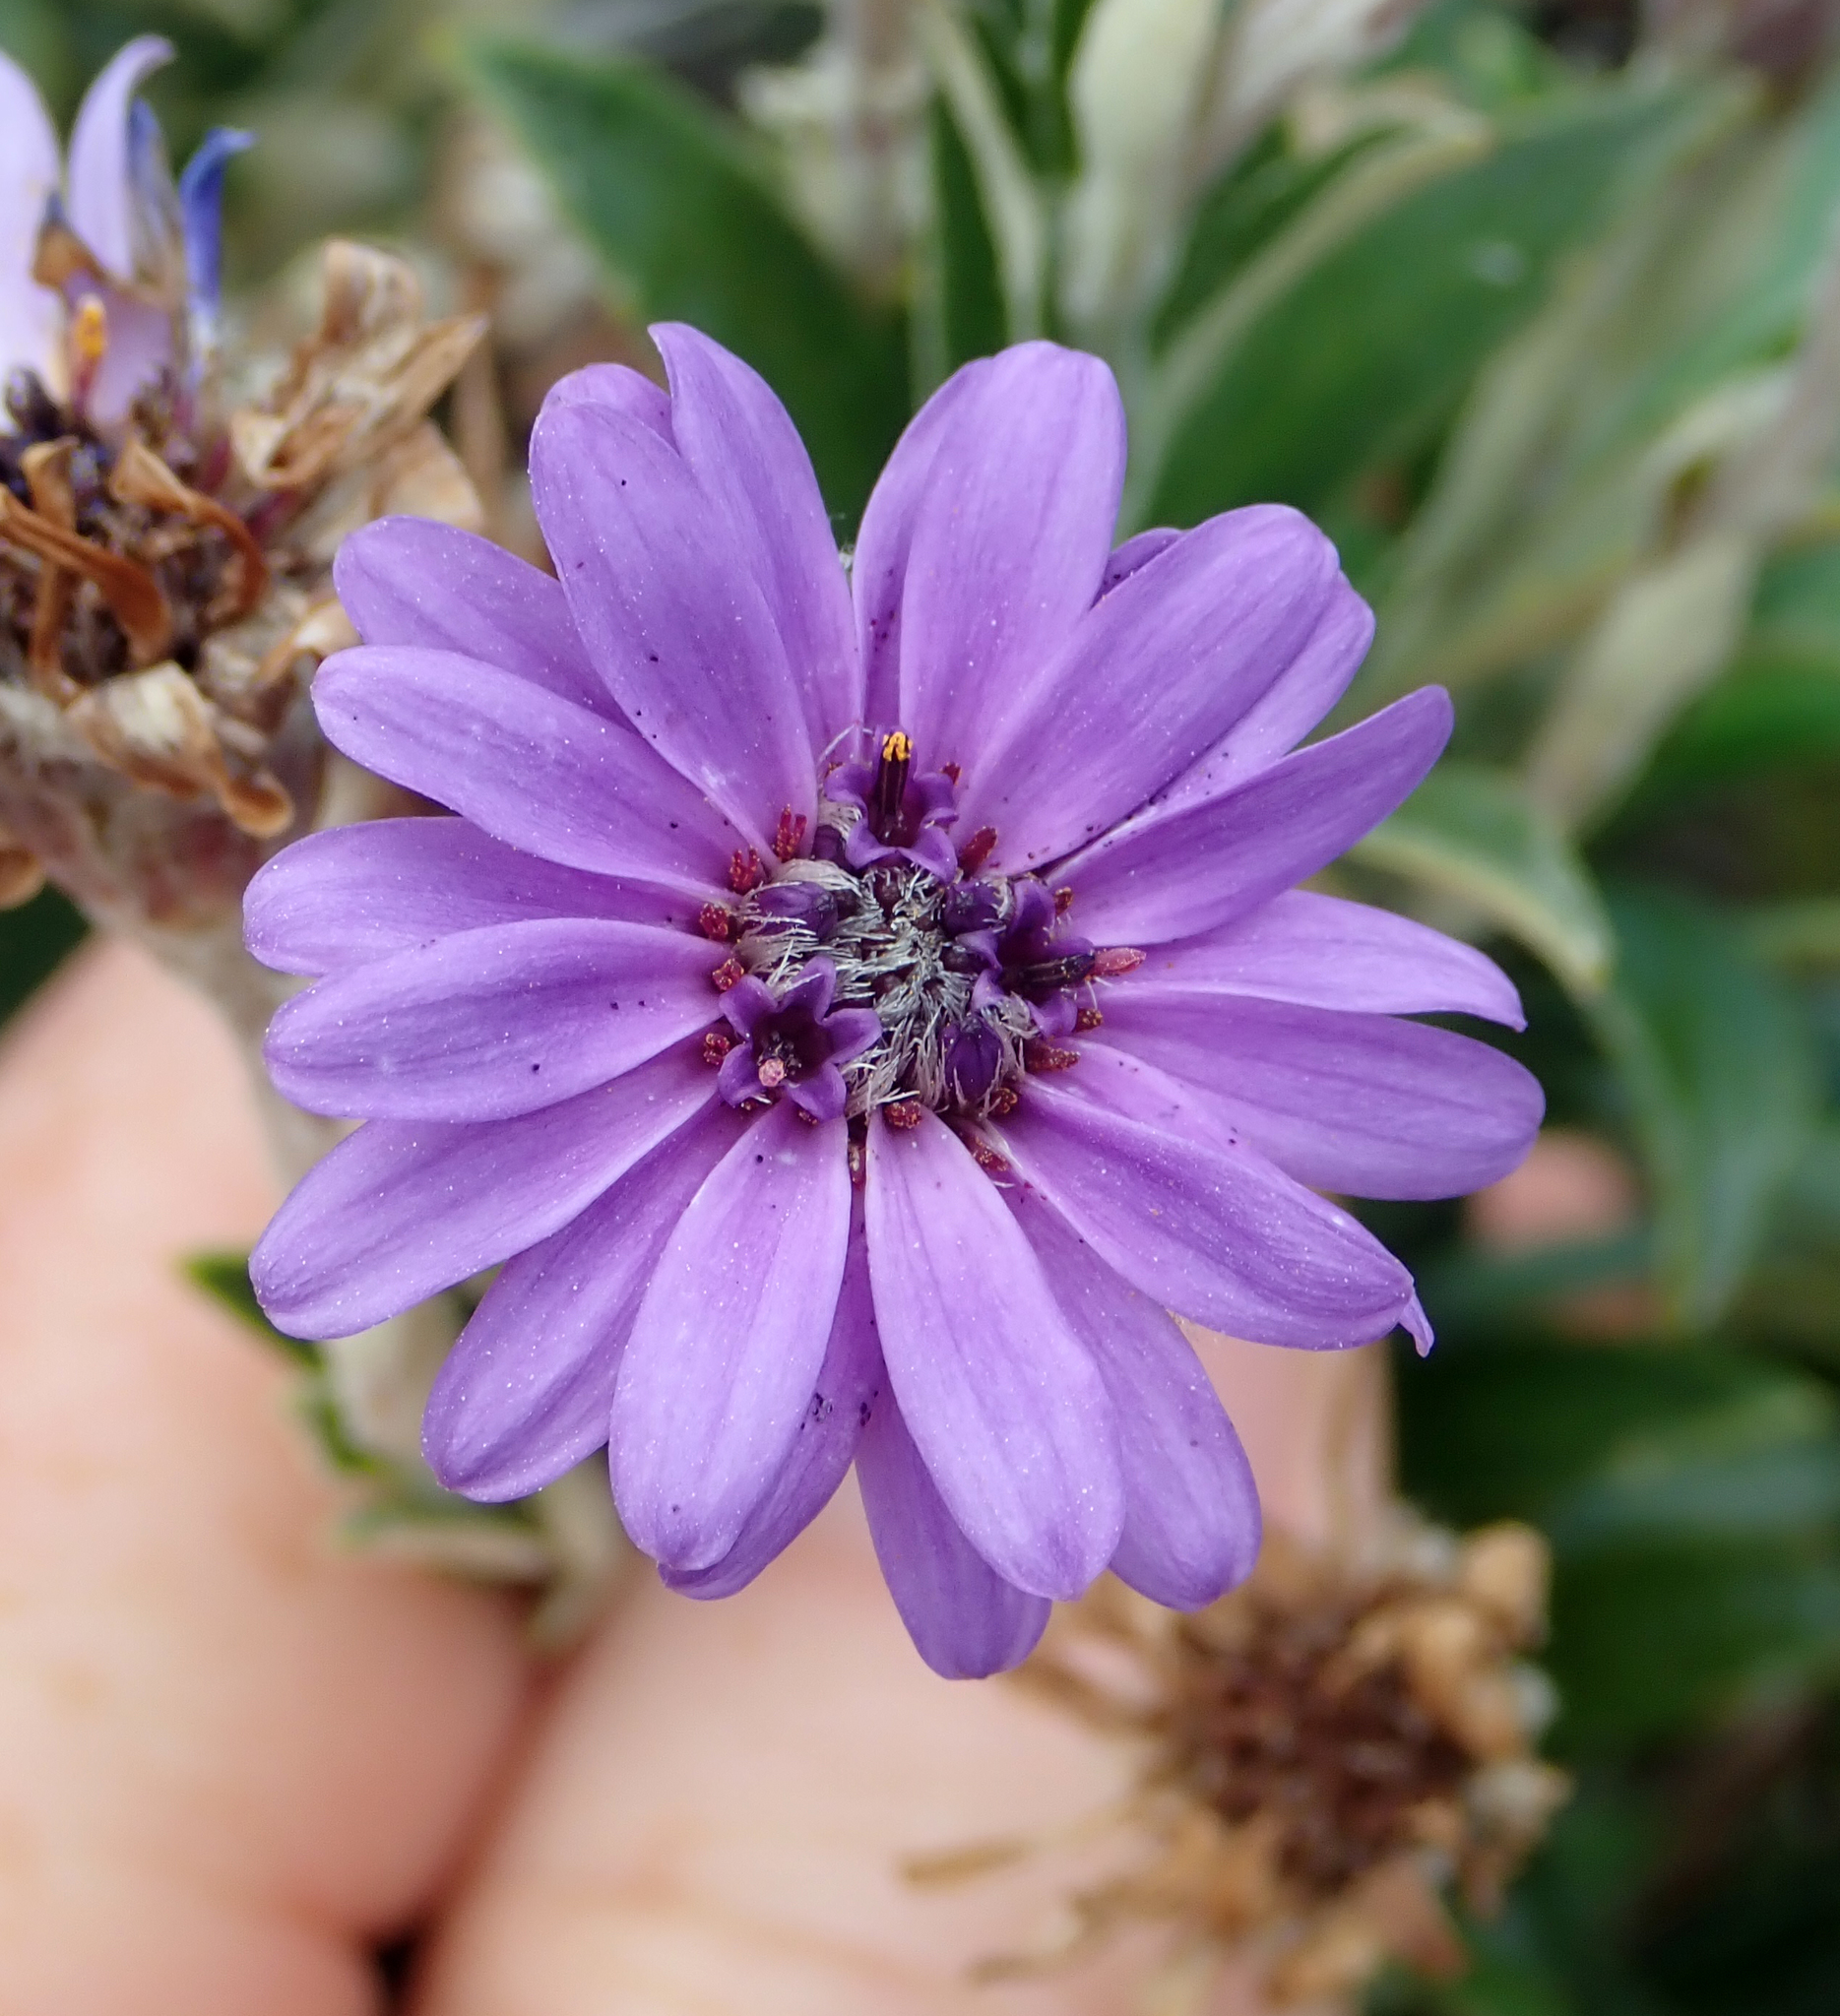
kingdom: Plantae
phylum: Tracheophyta
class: Magnoliopsida
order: Asterales
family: Asteraceae
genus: Macrolearia
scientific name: Macrolearia semidentata
